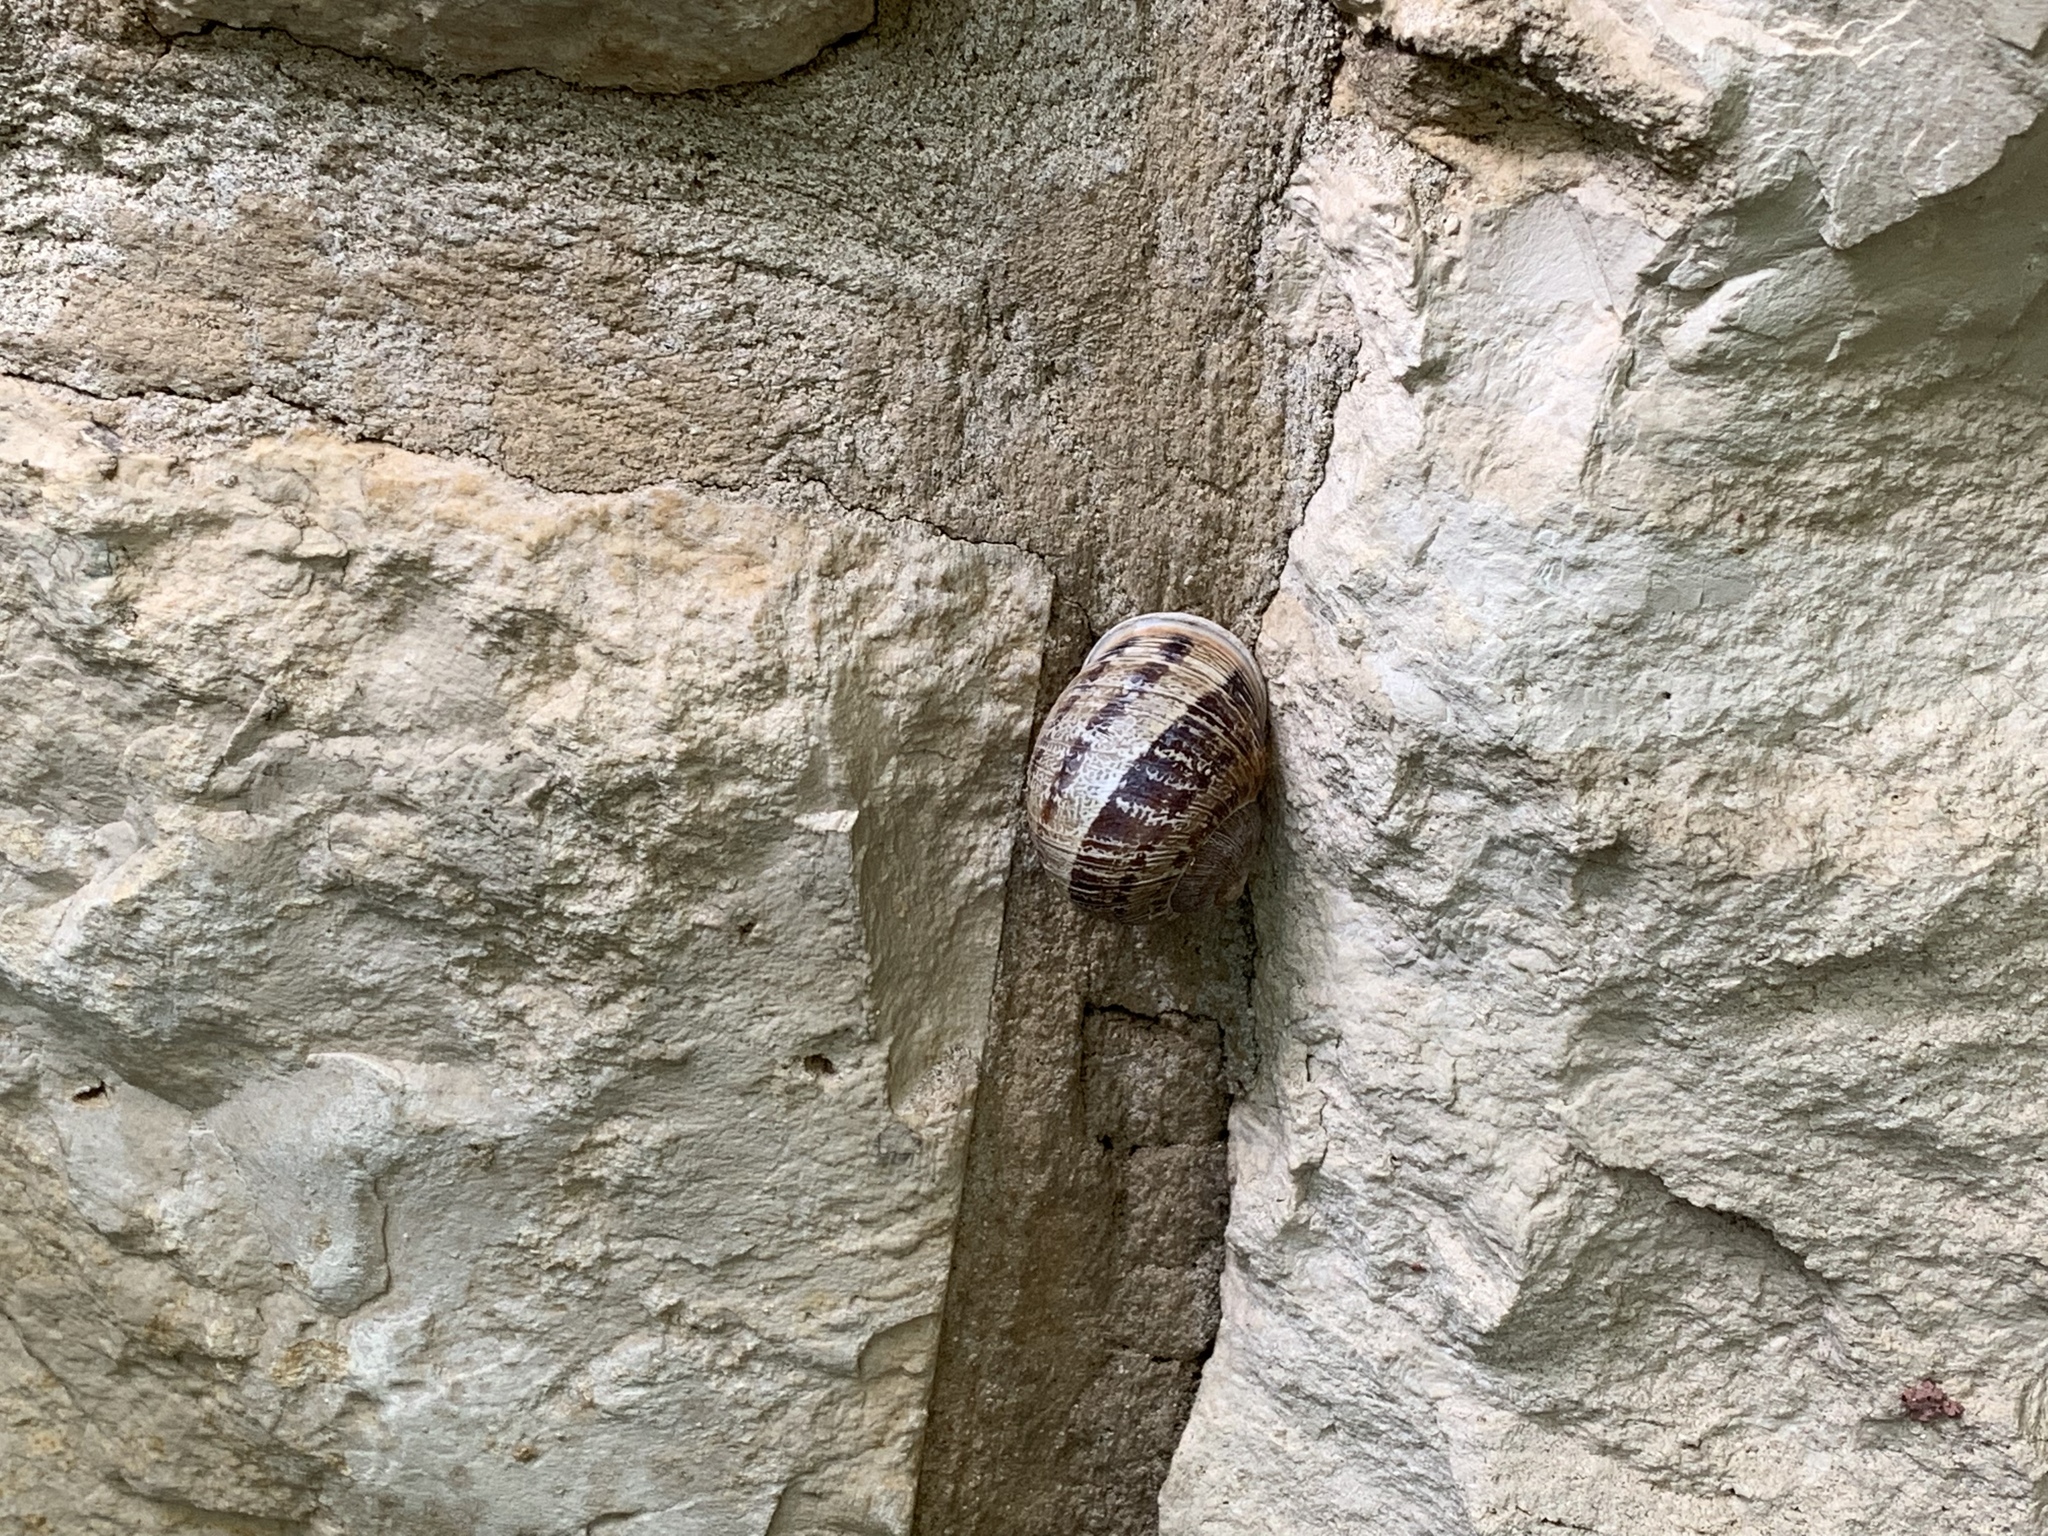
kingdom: Animalia
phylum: Mollusca
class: Gastropoda
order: Stylommatophora
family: Helicidae
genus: Cornu
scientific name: Cornu aspersum
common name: Brown garden snail
